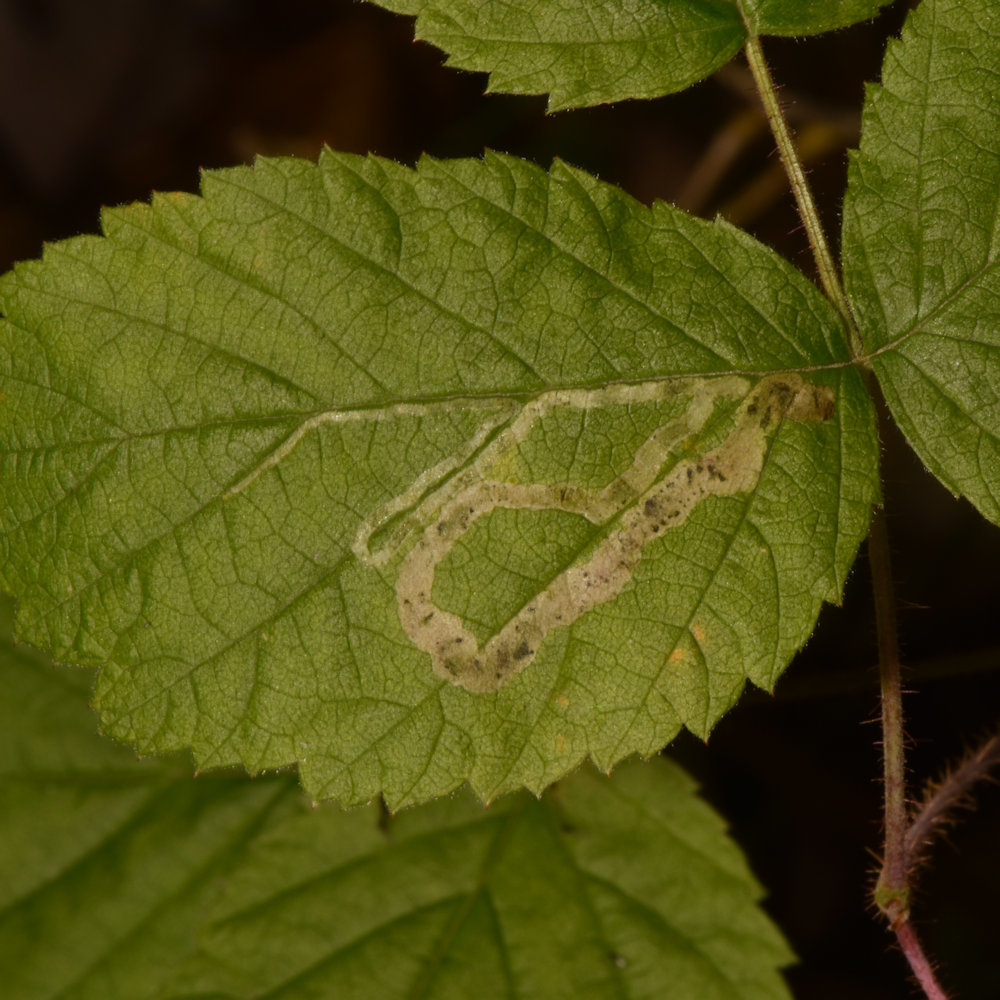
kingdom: Animalia
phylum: Arthropoda
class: Insecta
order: Diptera
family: Agromyzidae
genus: Agromyza
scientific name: Agromyza vockerothi
